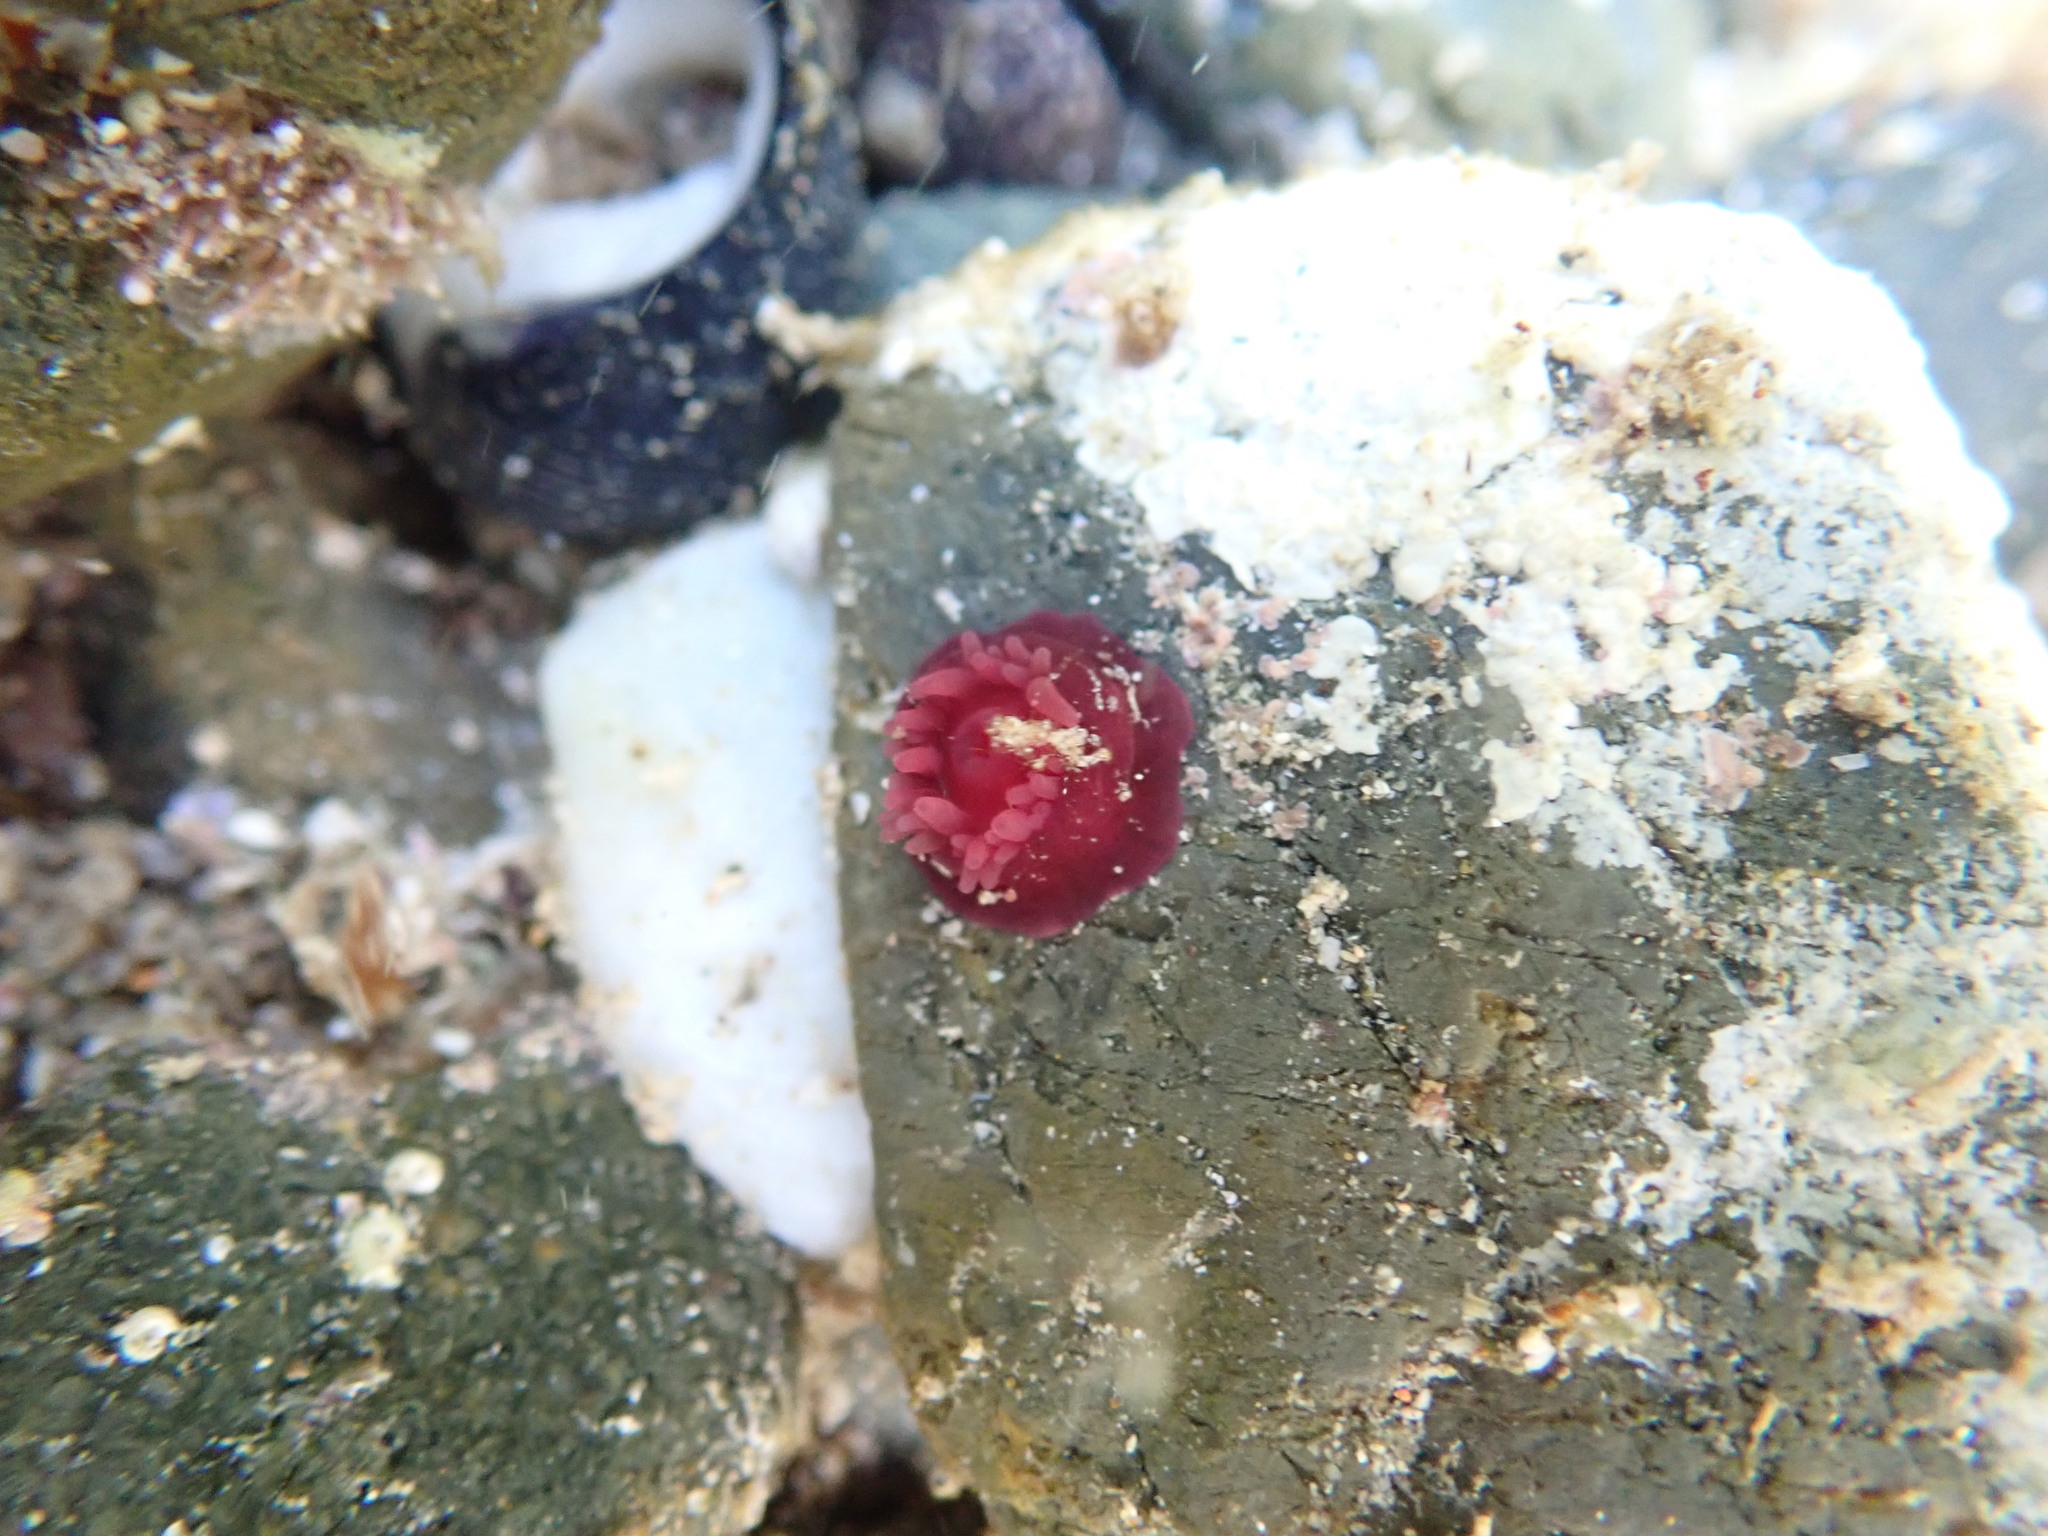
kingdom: Animalia
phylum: Cnidaria
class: Anthozoa
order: Actiniaria
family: Actiniidae
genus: Actinia
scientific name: Actinia tenebrosa
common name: Waratah anemone
